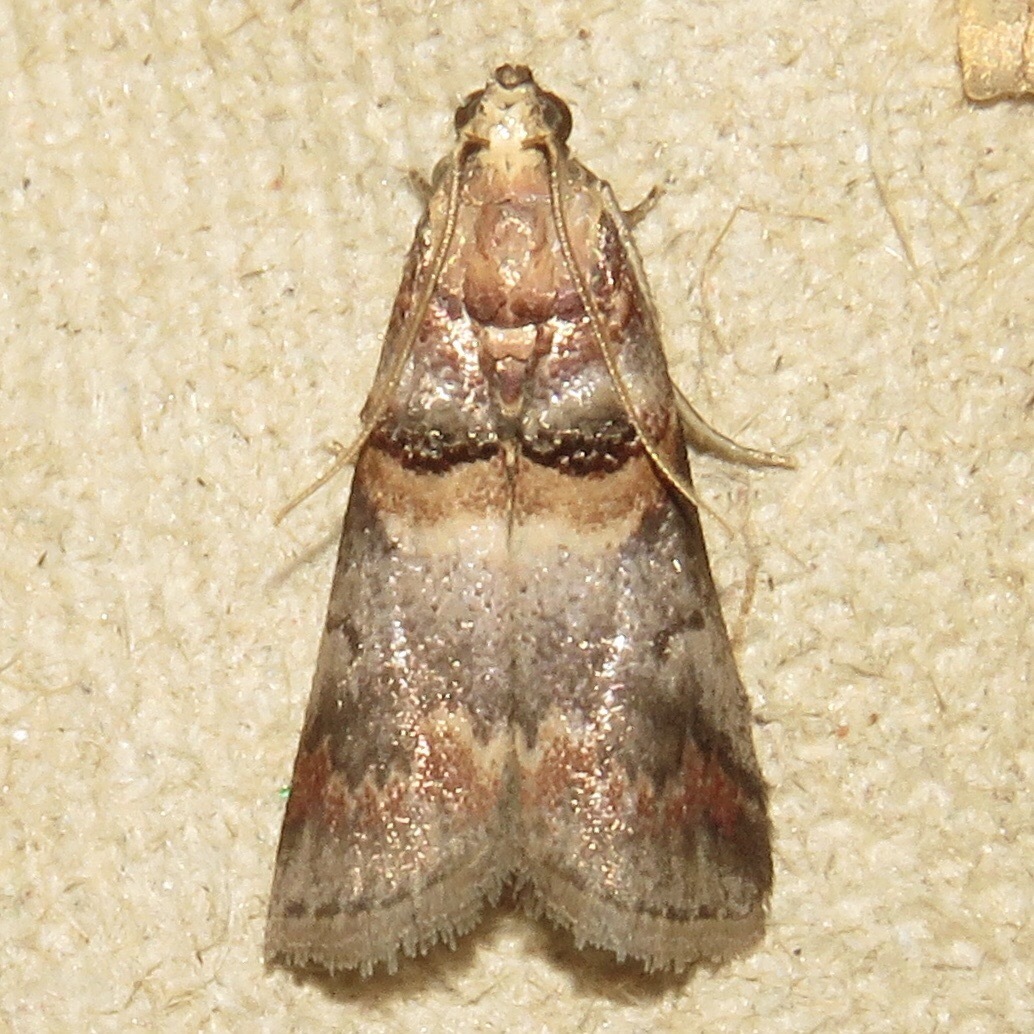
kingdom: Animalia
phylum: Arthropoda
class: Insecta
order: Lepidoptera
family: Pyralidae
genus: Acrobasis
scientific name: Acrobasis angusella
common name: Hickory leafstem borer moth
